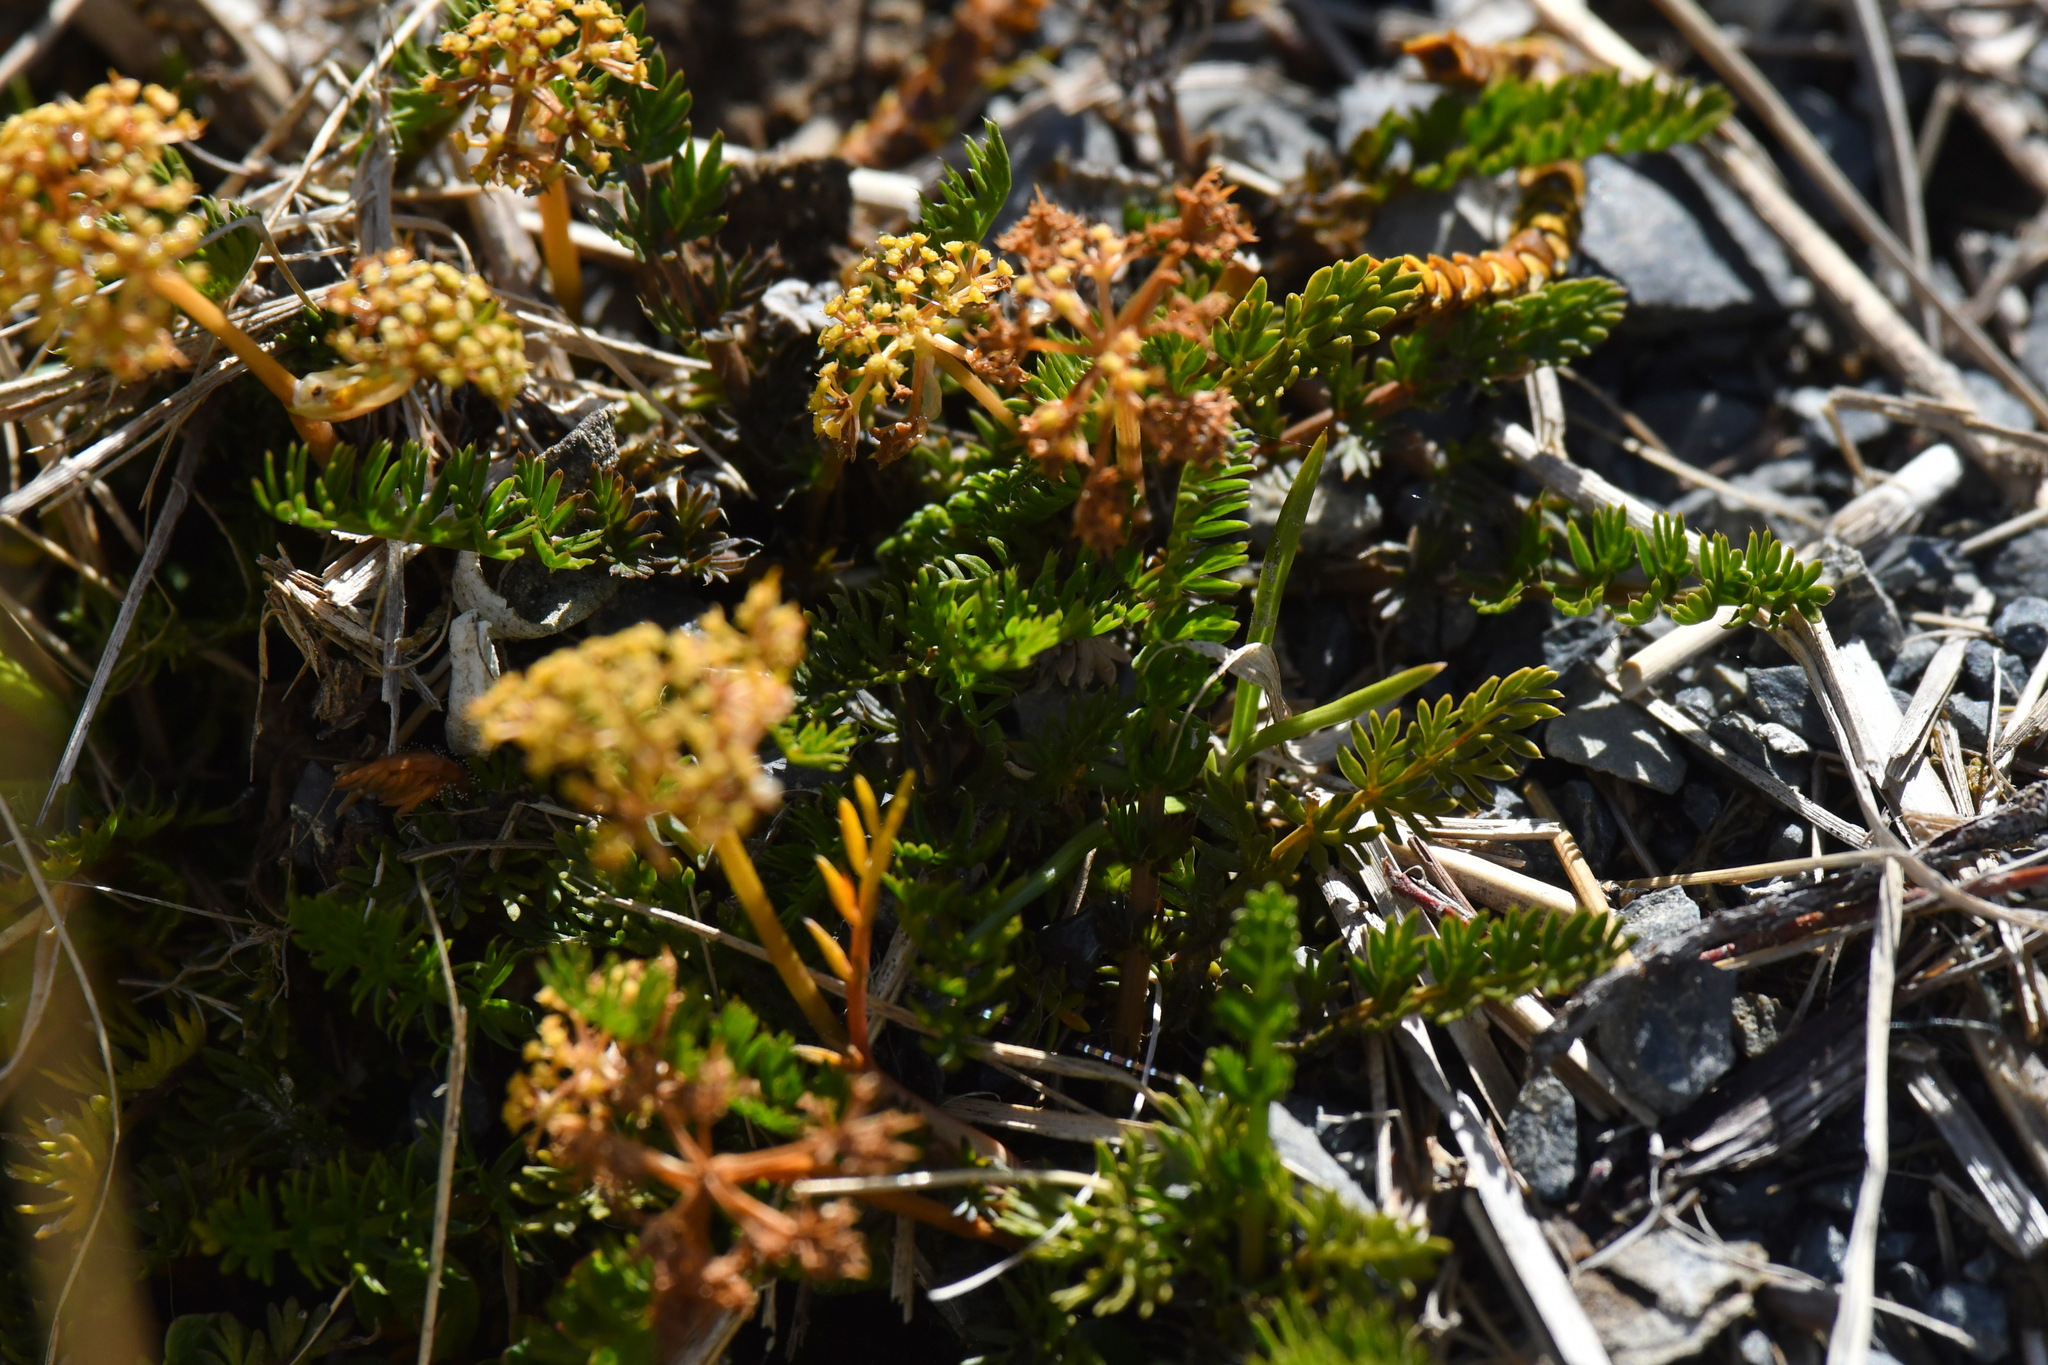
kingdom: Plantae
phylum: Tracheophyta
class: Magnoliopsida
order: Apiales
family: Apiaceae
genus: Anisotome
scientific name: Anisotome flexuosa
